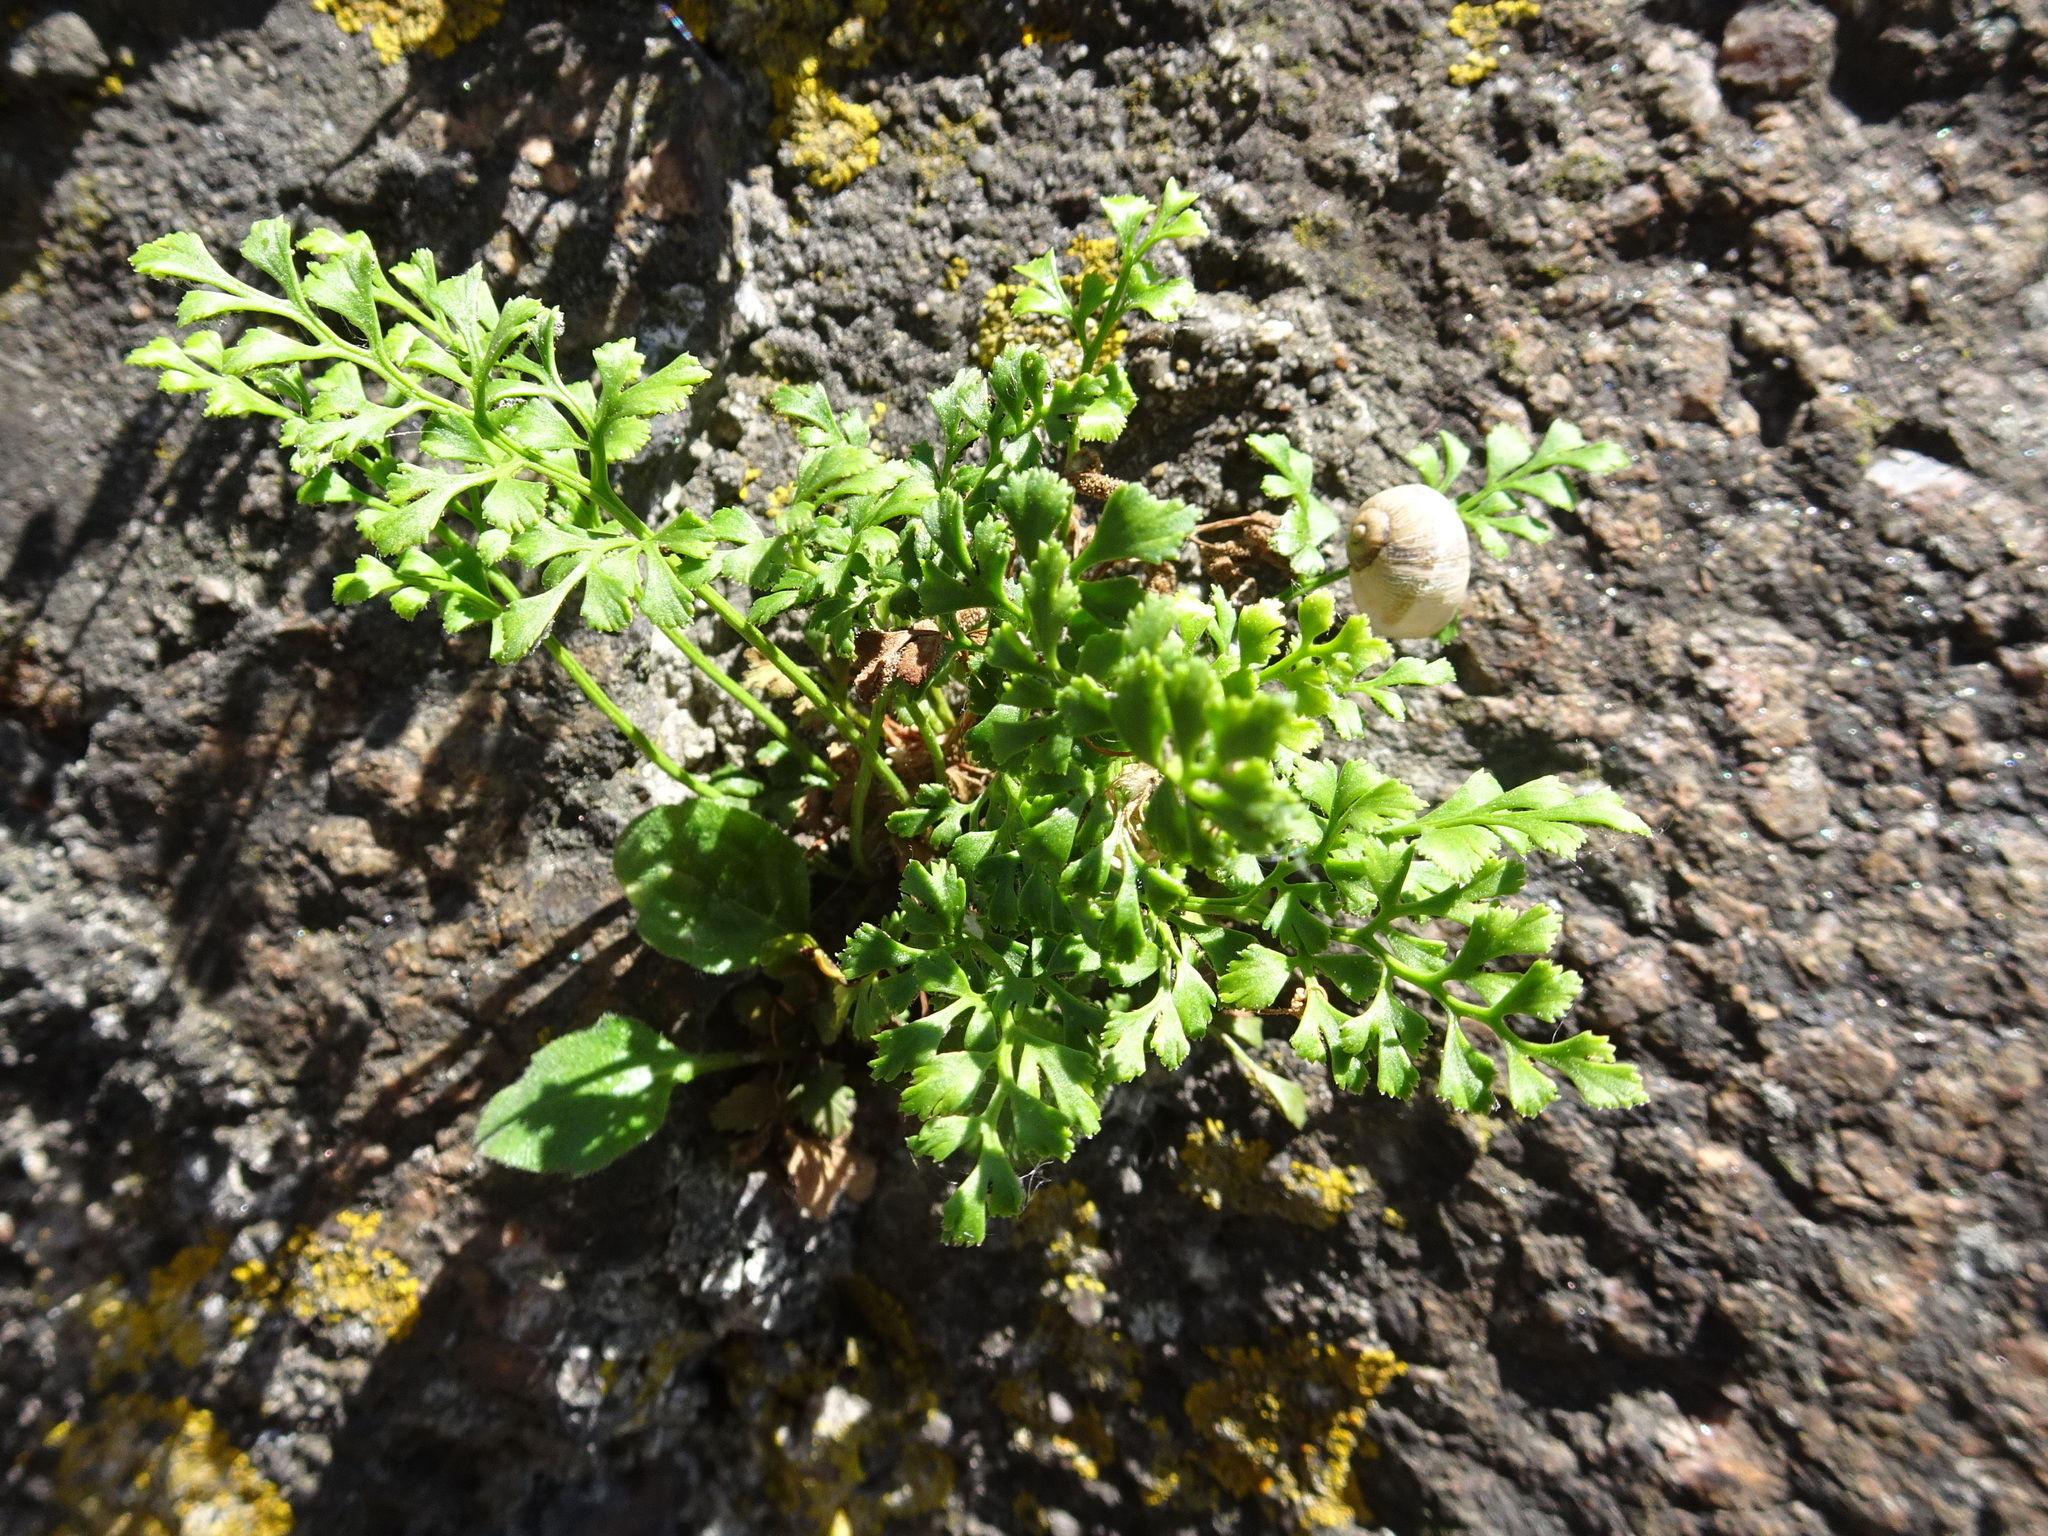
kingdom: Plantae
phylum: Tracheophyta
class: Polypodiopsida
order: Polypodiales
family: Aspleniaceae
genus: Asplenium
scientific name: Asplenium ruta-muraria
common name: Wall-rue
